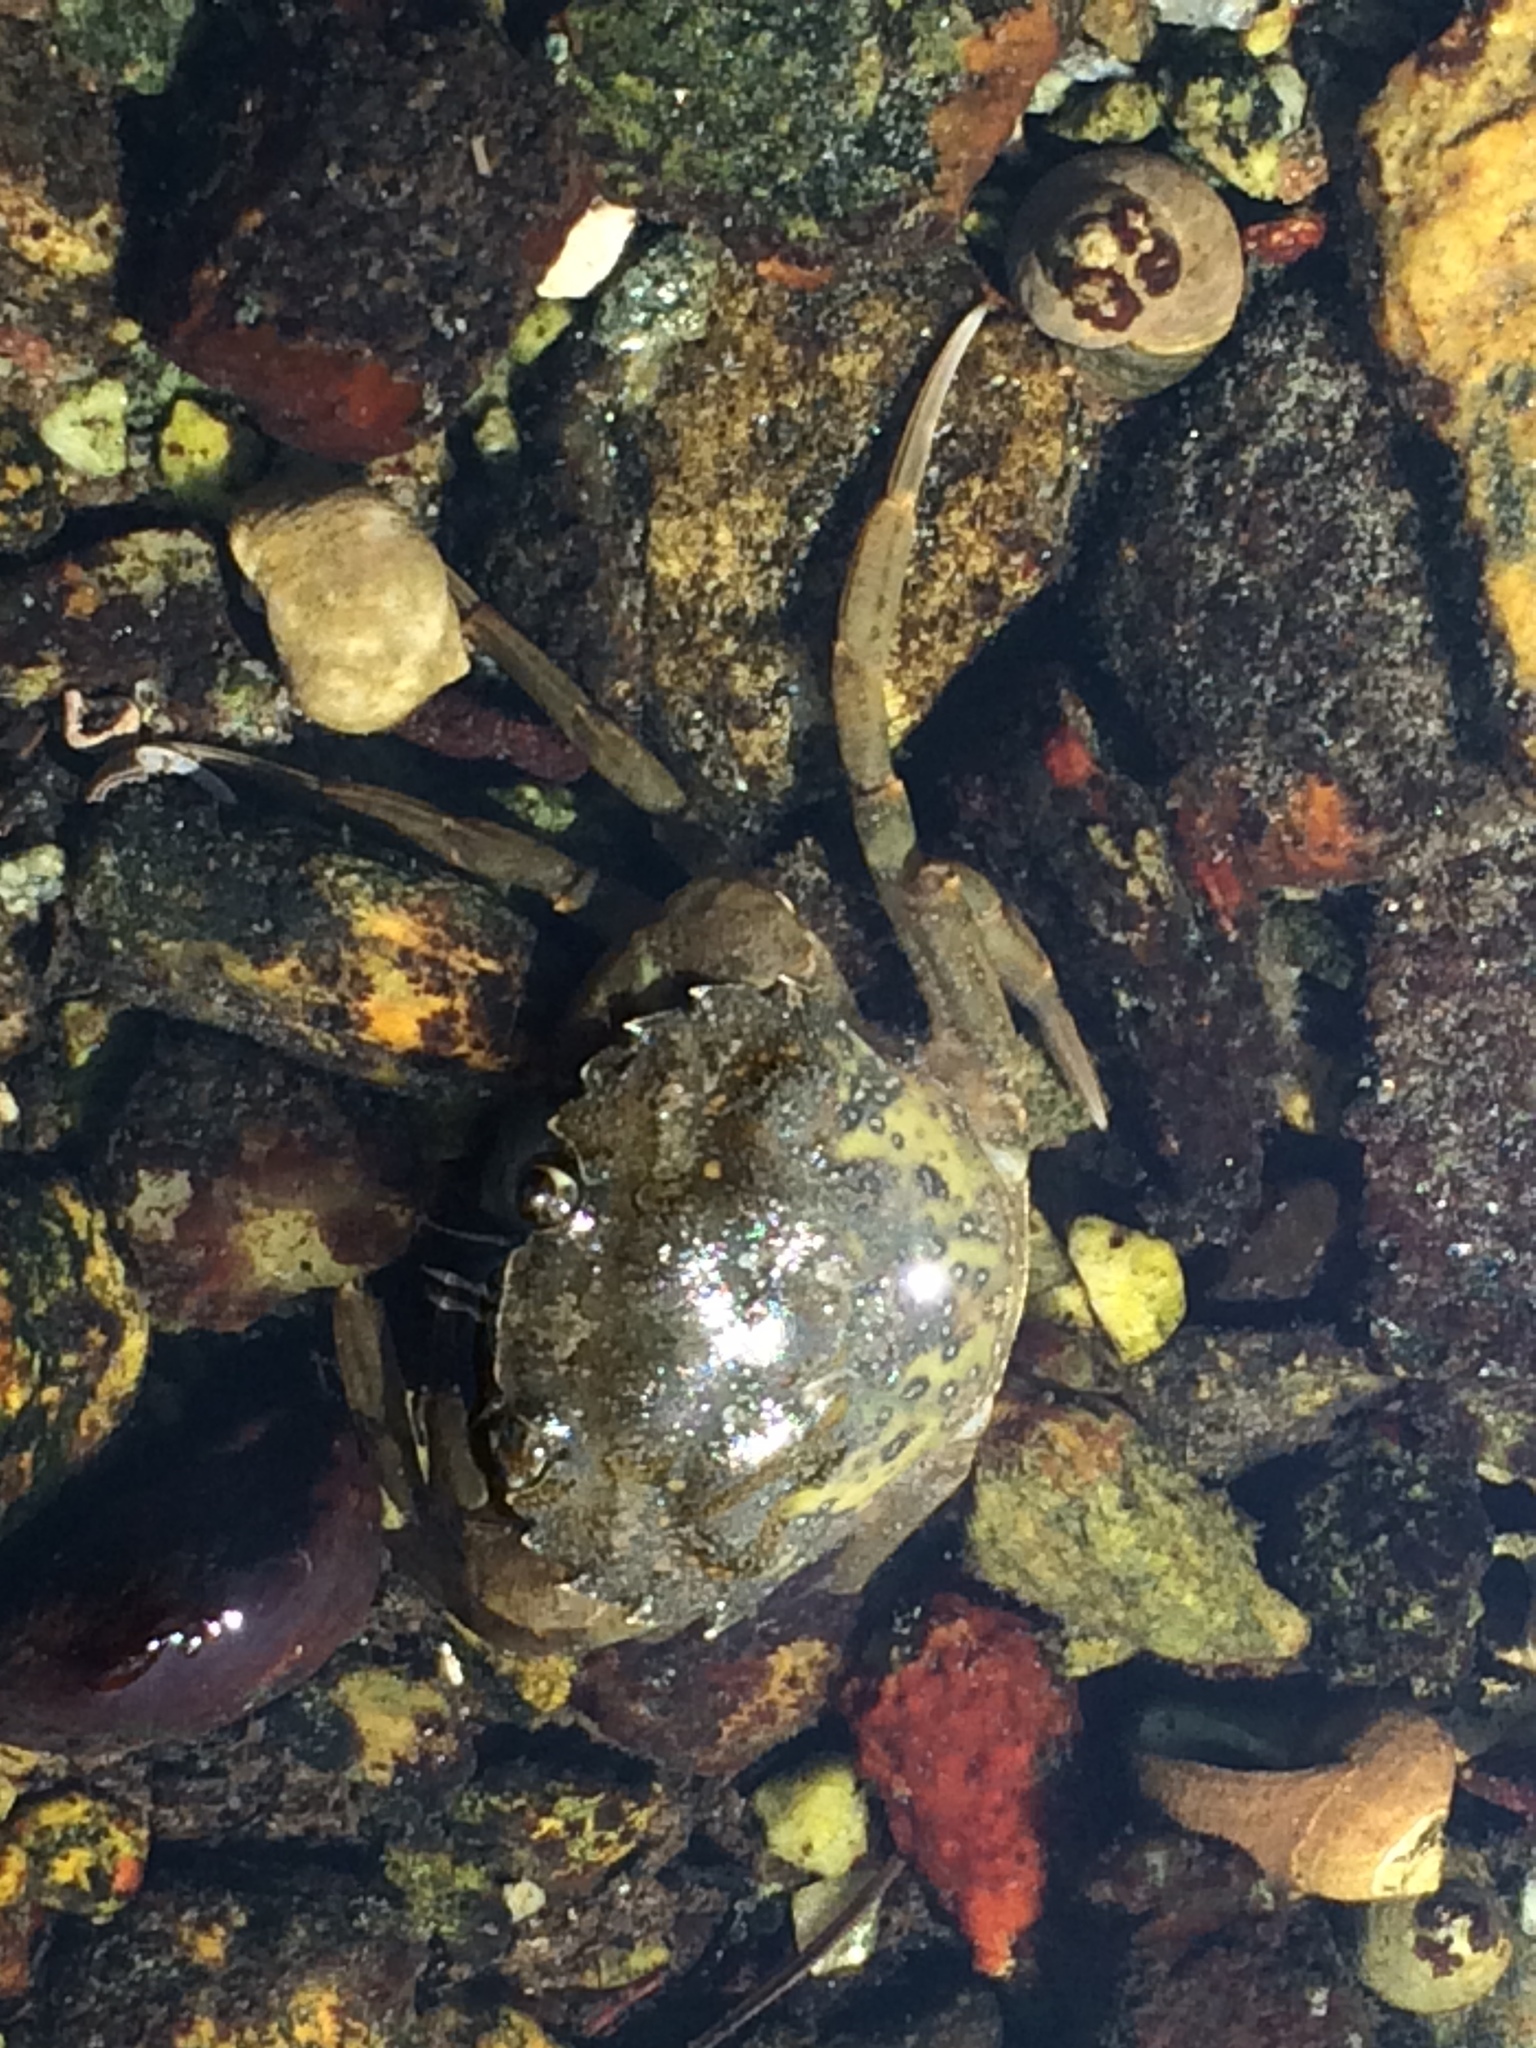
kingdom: Animalia
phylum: Arthropoda
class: Malacostraca
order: Decapoda
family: Carcinidae
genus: Carcinus
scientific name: Carcinus maenas
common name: European green crab
